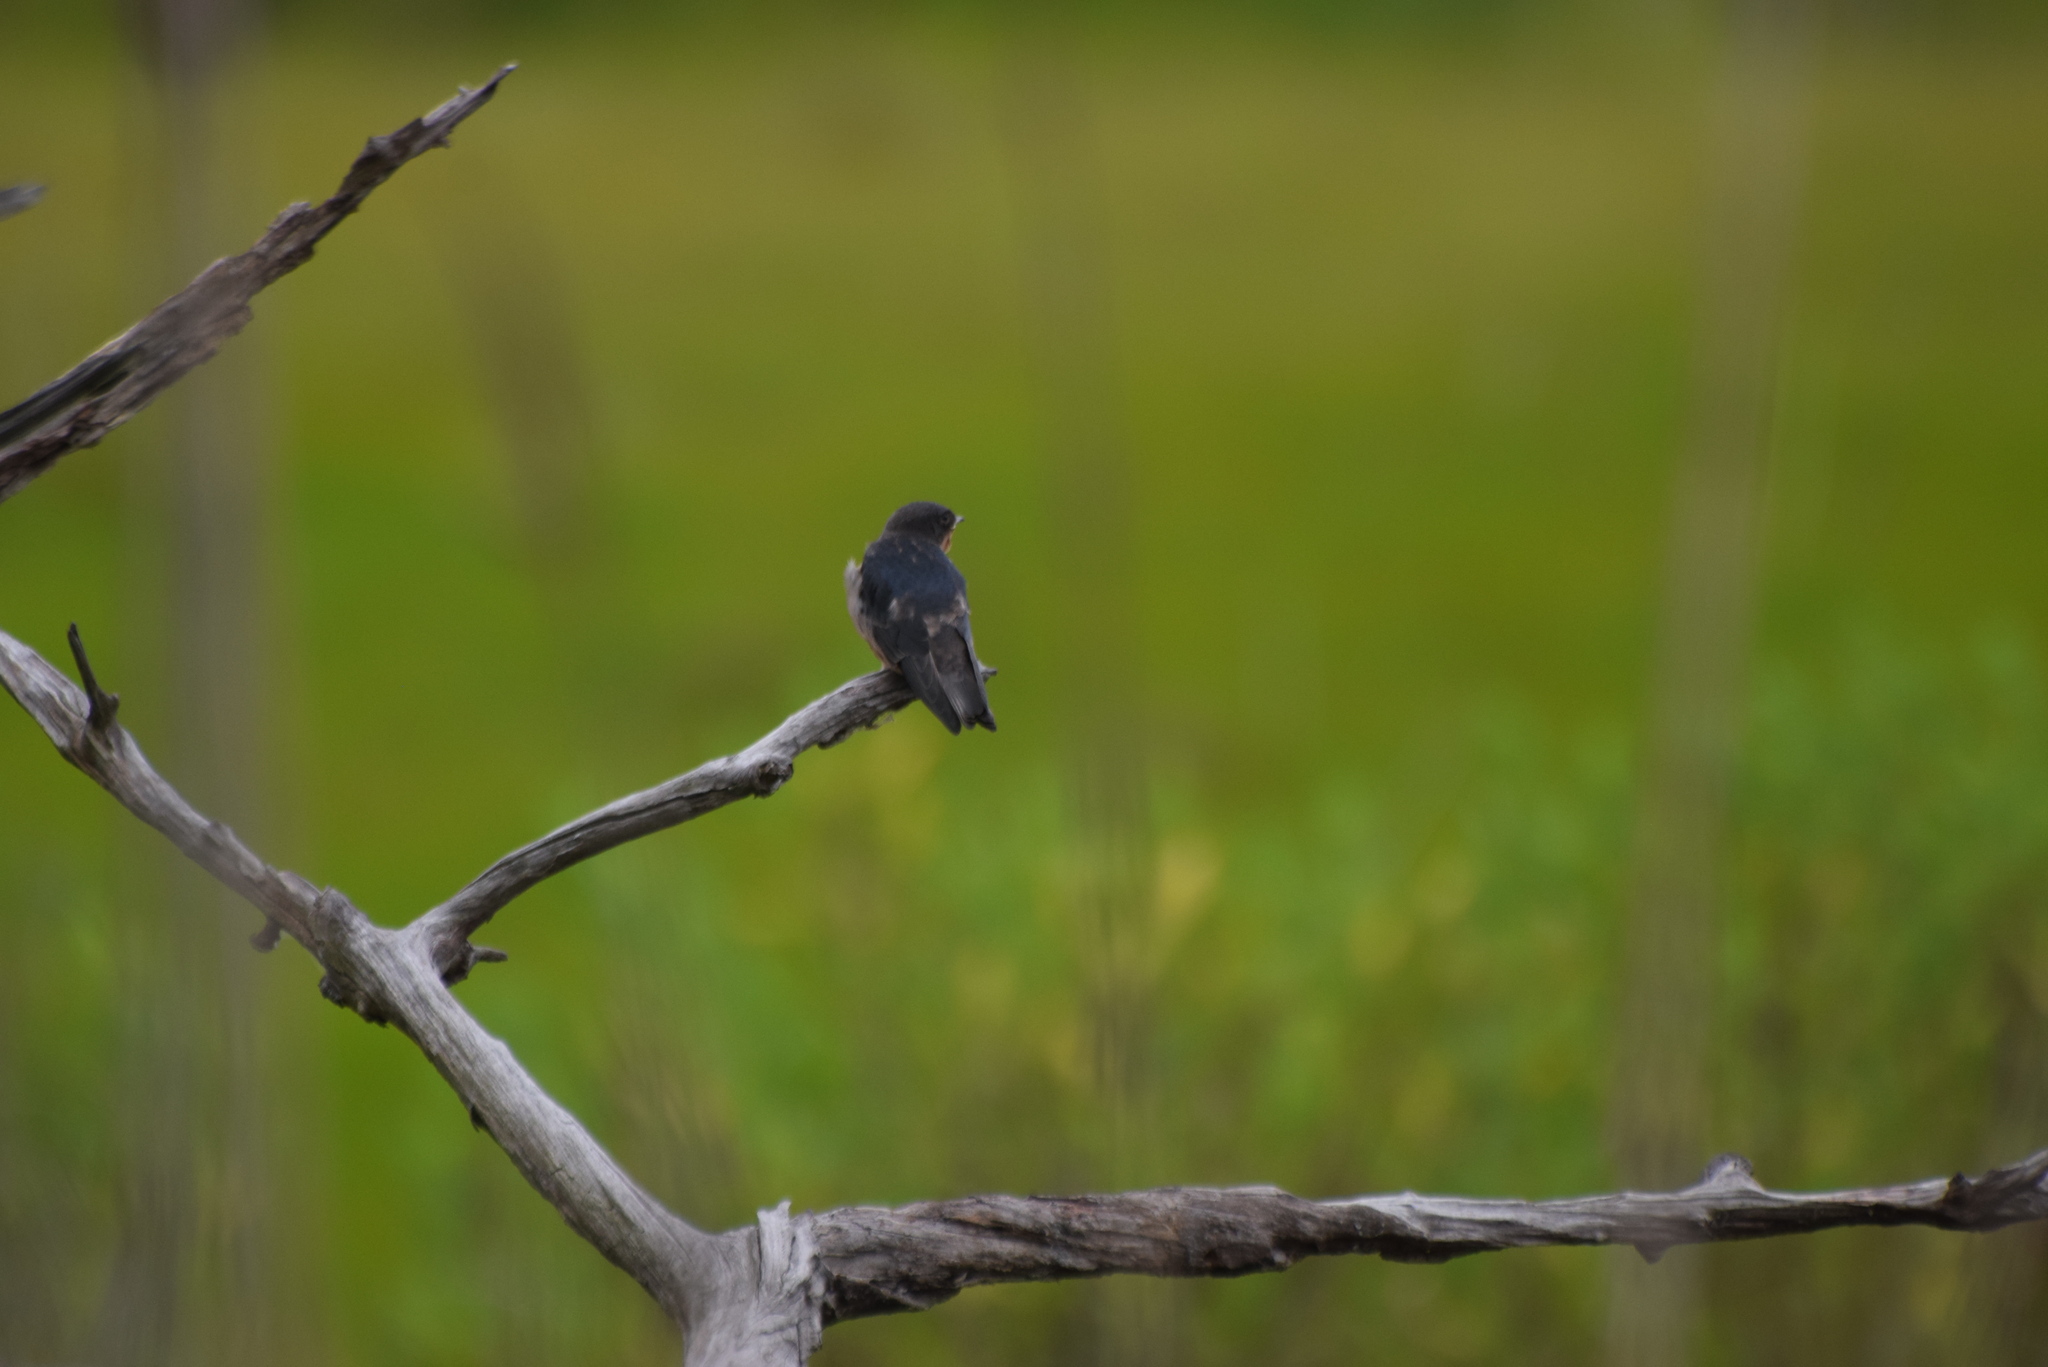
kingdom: Animalia
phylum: Chordata
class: Aves
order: Passeriformes
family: Hirundinidae
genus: Hirundo
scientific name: Hirundo rustica
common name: Barn swallow
